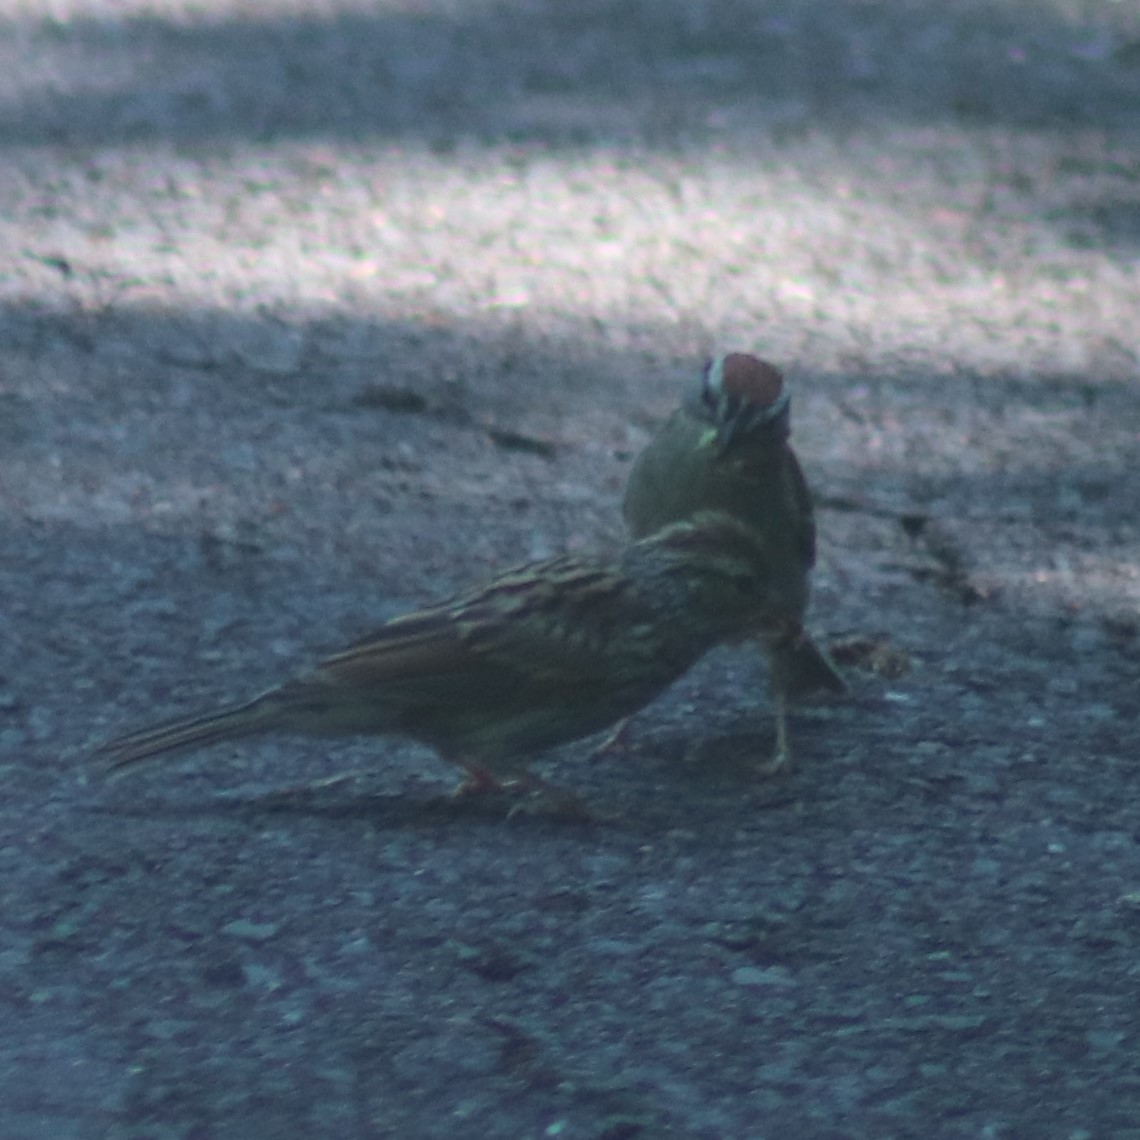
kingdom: Animalia
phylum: Chordata
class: Aves
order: Passeriformes
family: Passerellidae
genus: Spizella
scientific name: Spizella passerina
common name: Chipping sparrow
